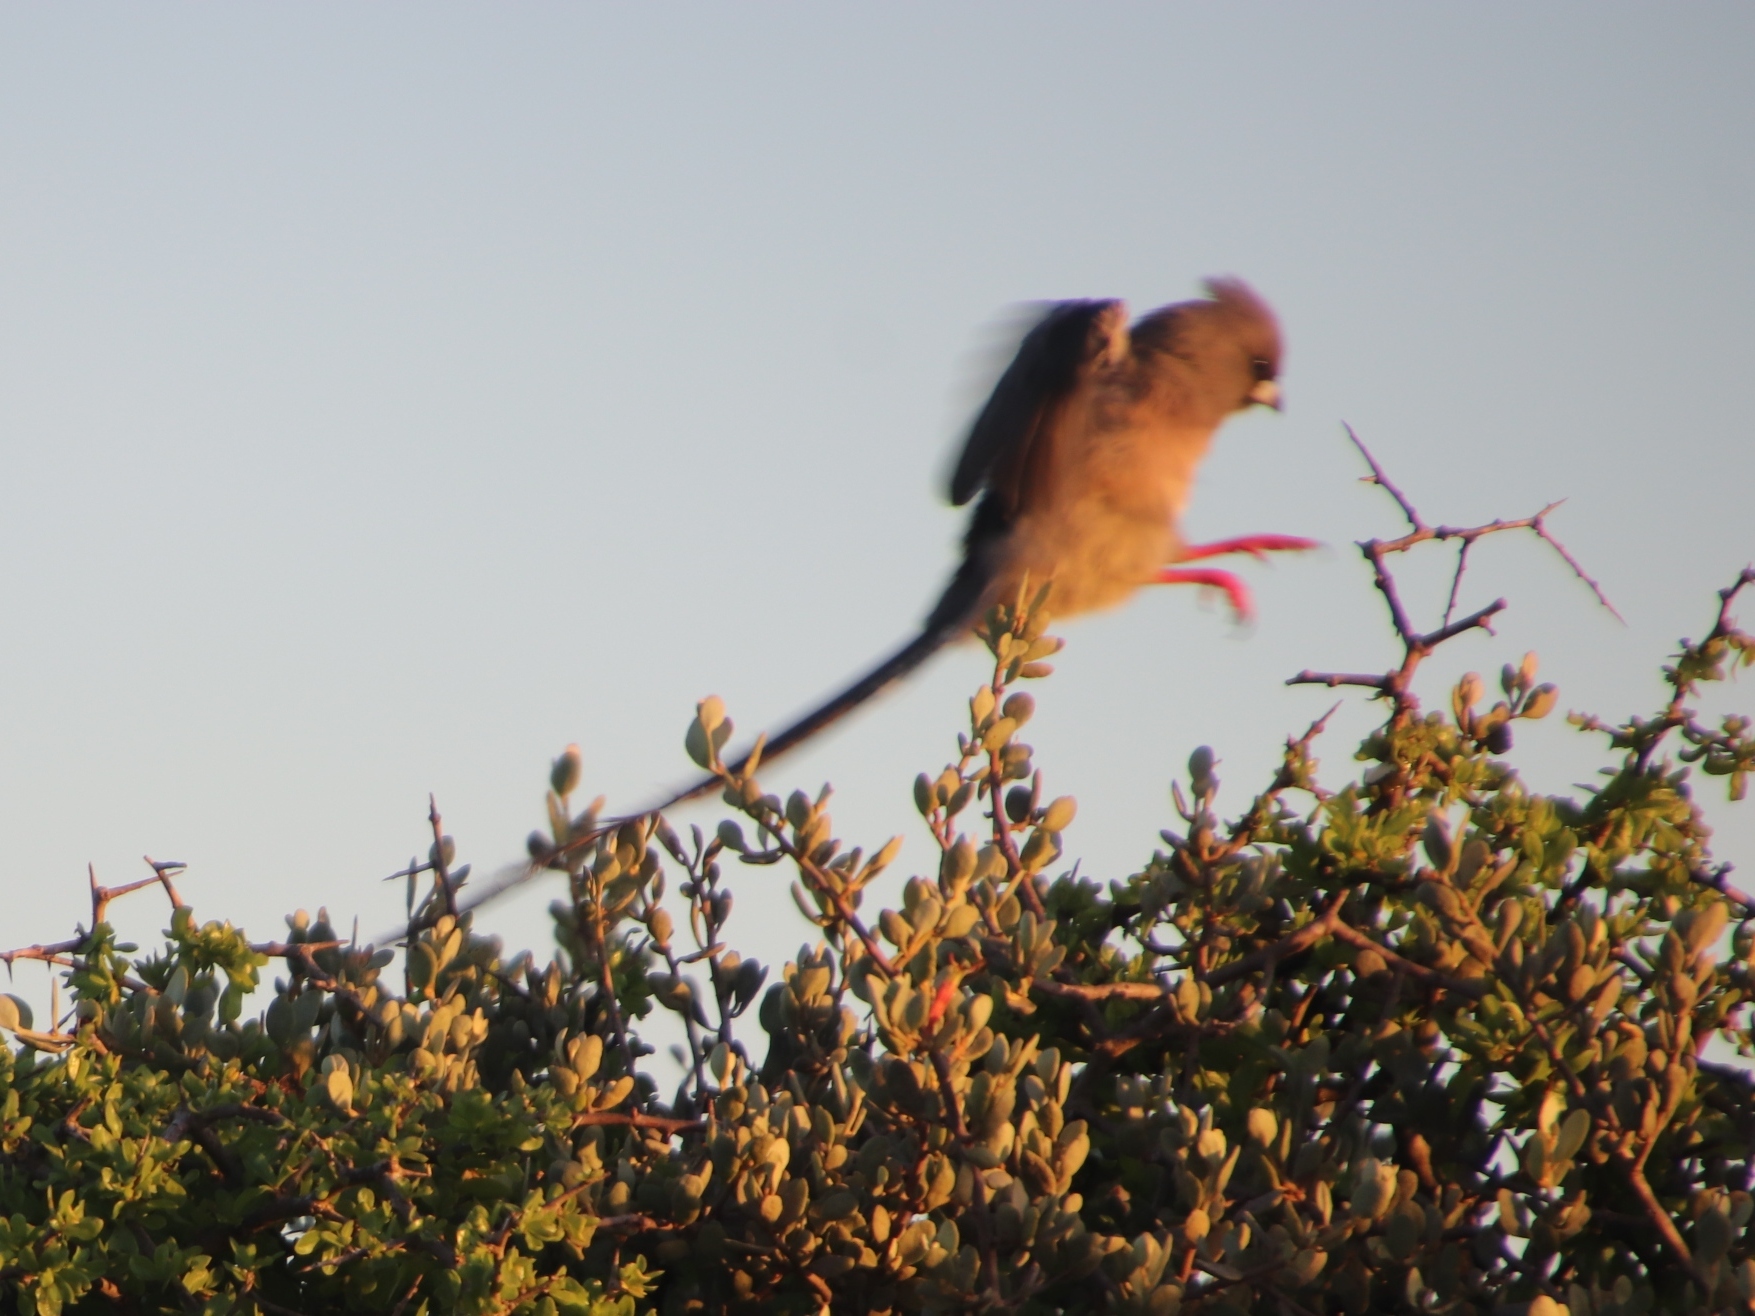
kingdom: Animalia
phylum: Chordata
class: Aves
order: Coliiformes
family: Coliidae
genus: Colius
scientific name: Colius colius
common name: White-backed mousebird
